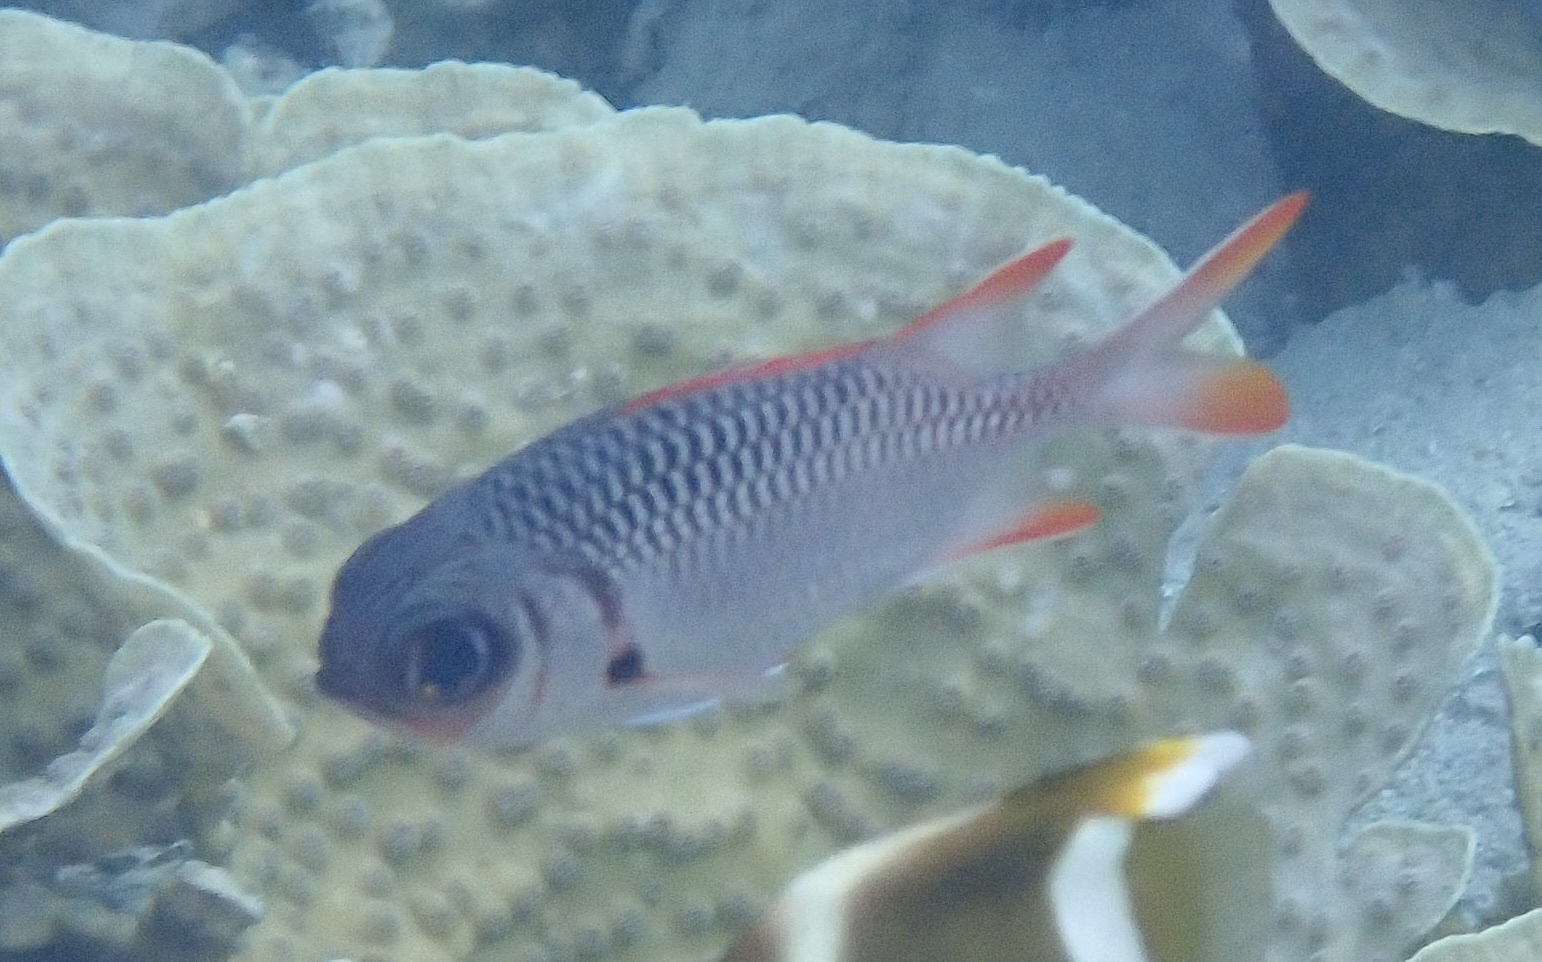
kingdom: Animalia
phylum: Chordata
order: Beryciformes
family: Holocentridae
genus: Myripristis
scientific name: Myripristis violacea
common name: Lattice soldierfish
